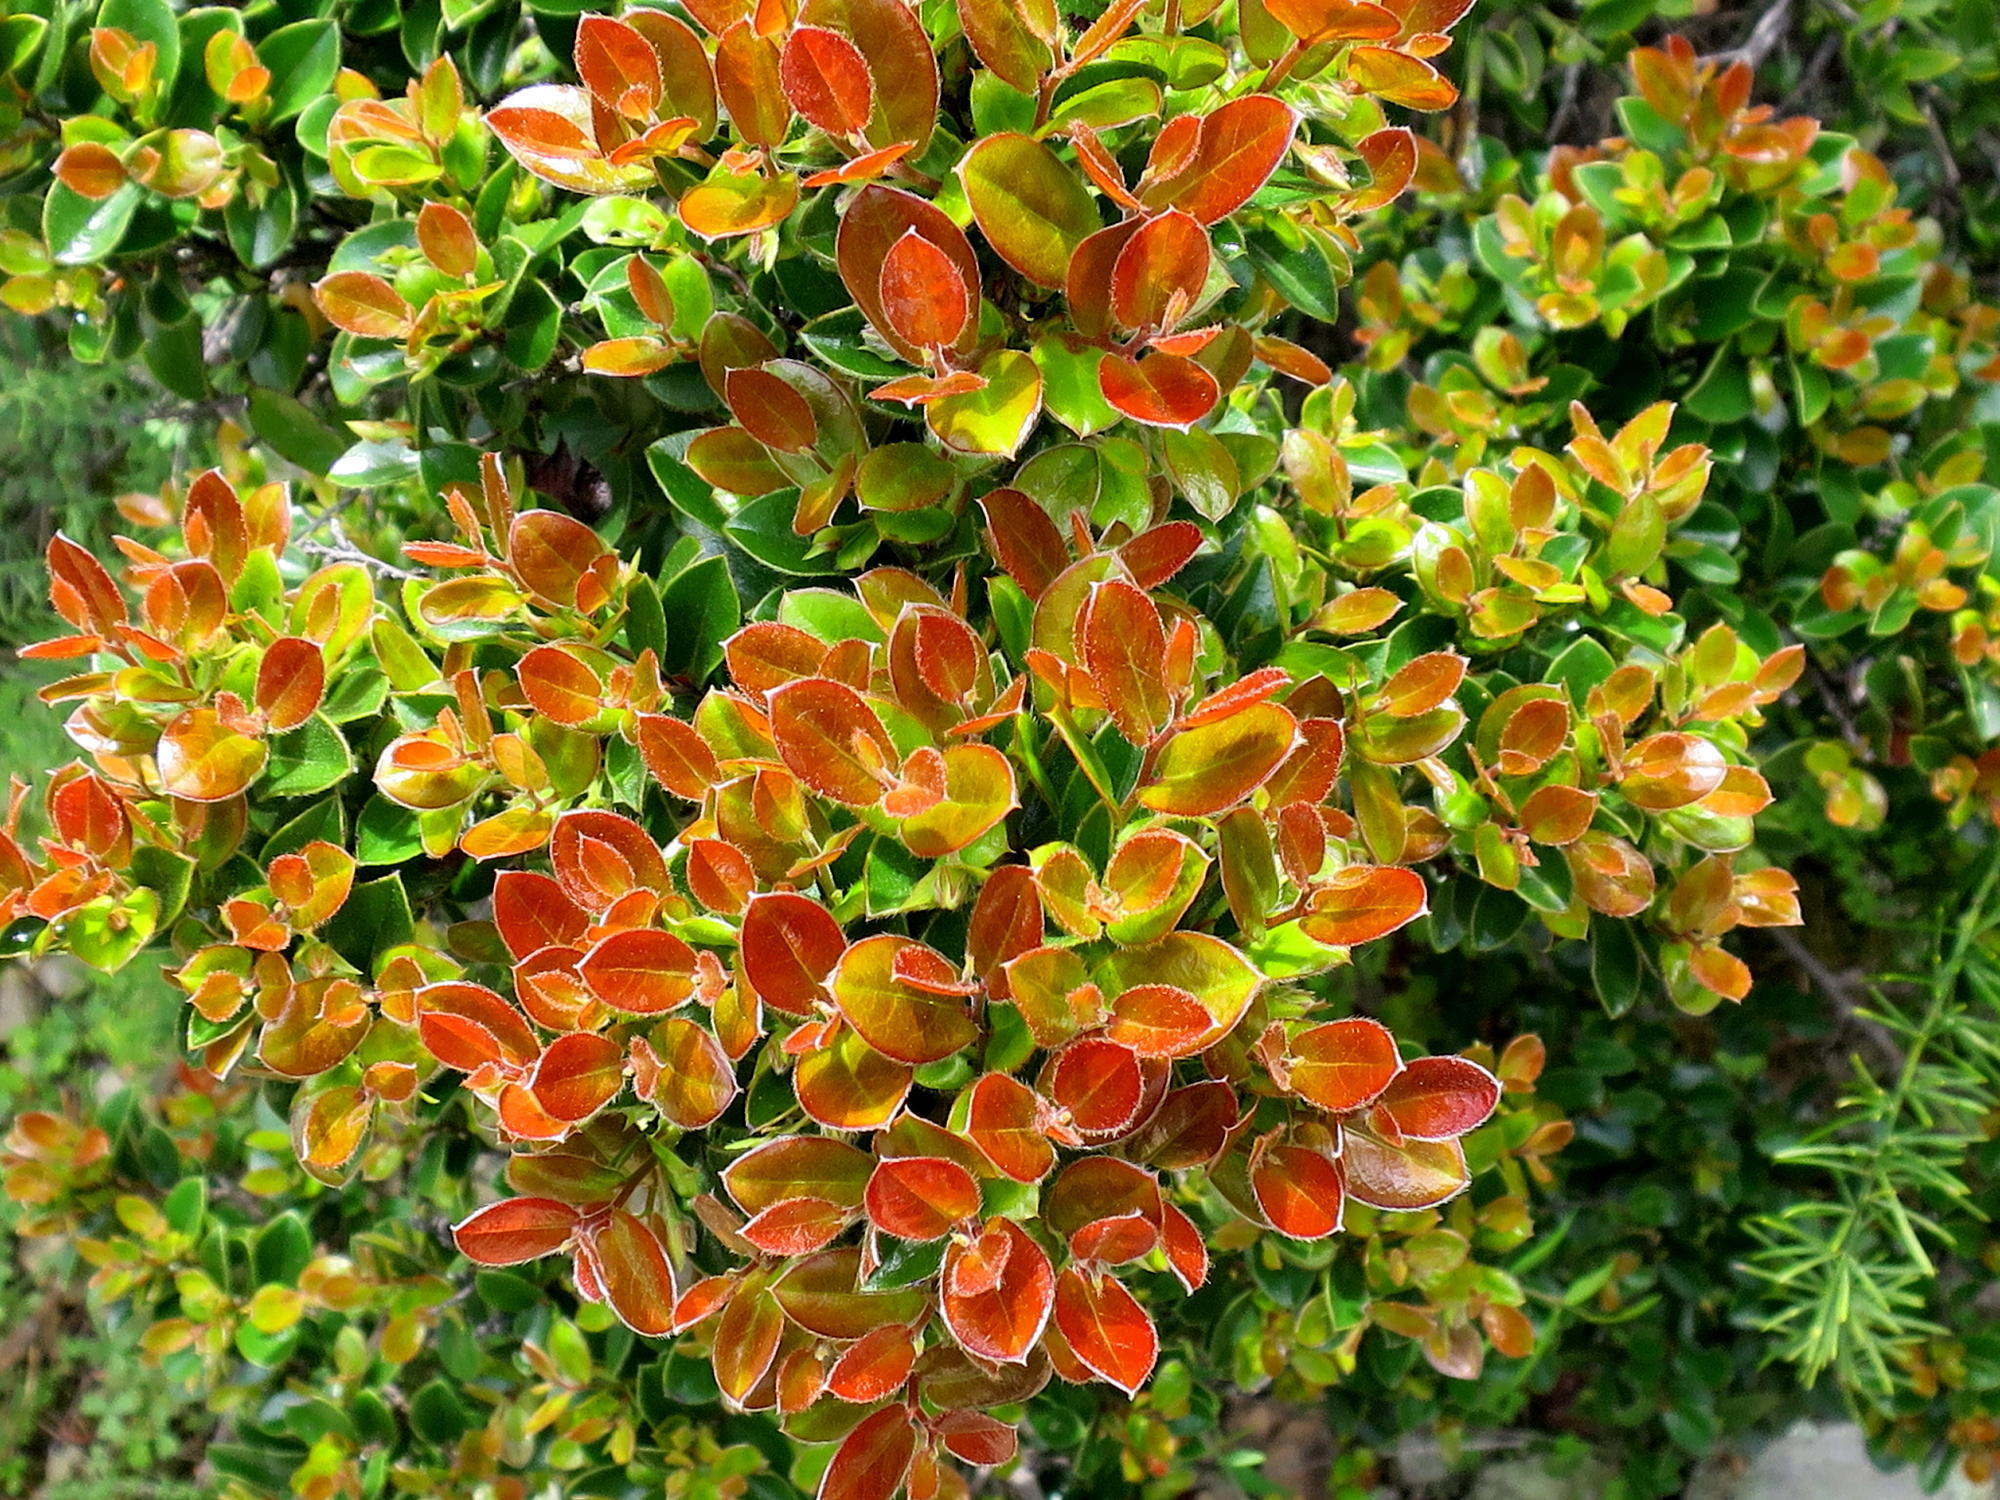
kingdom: Plantae
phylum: Tracheophyta
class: Magnoliopsida
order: Ericales
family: Ebenaceae
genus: Diospyros
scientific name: Diospyros whyteana
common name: Bladder-nut
